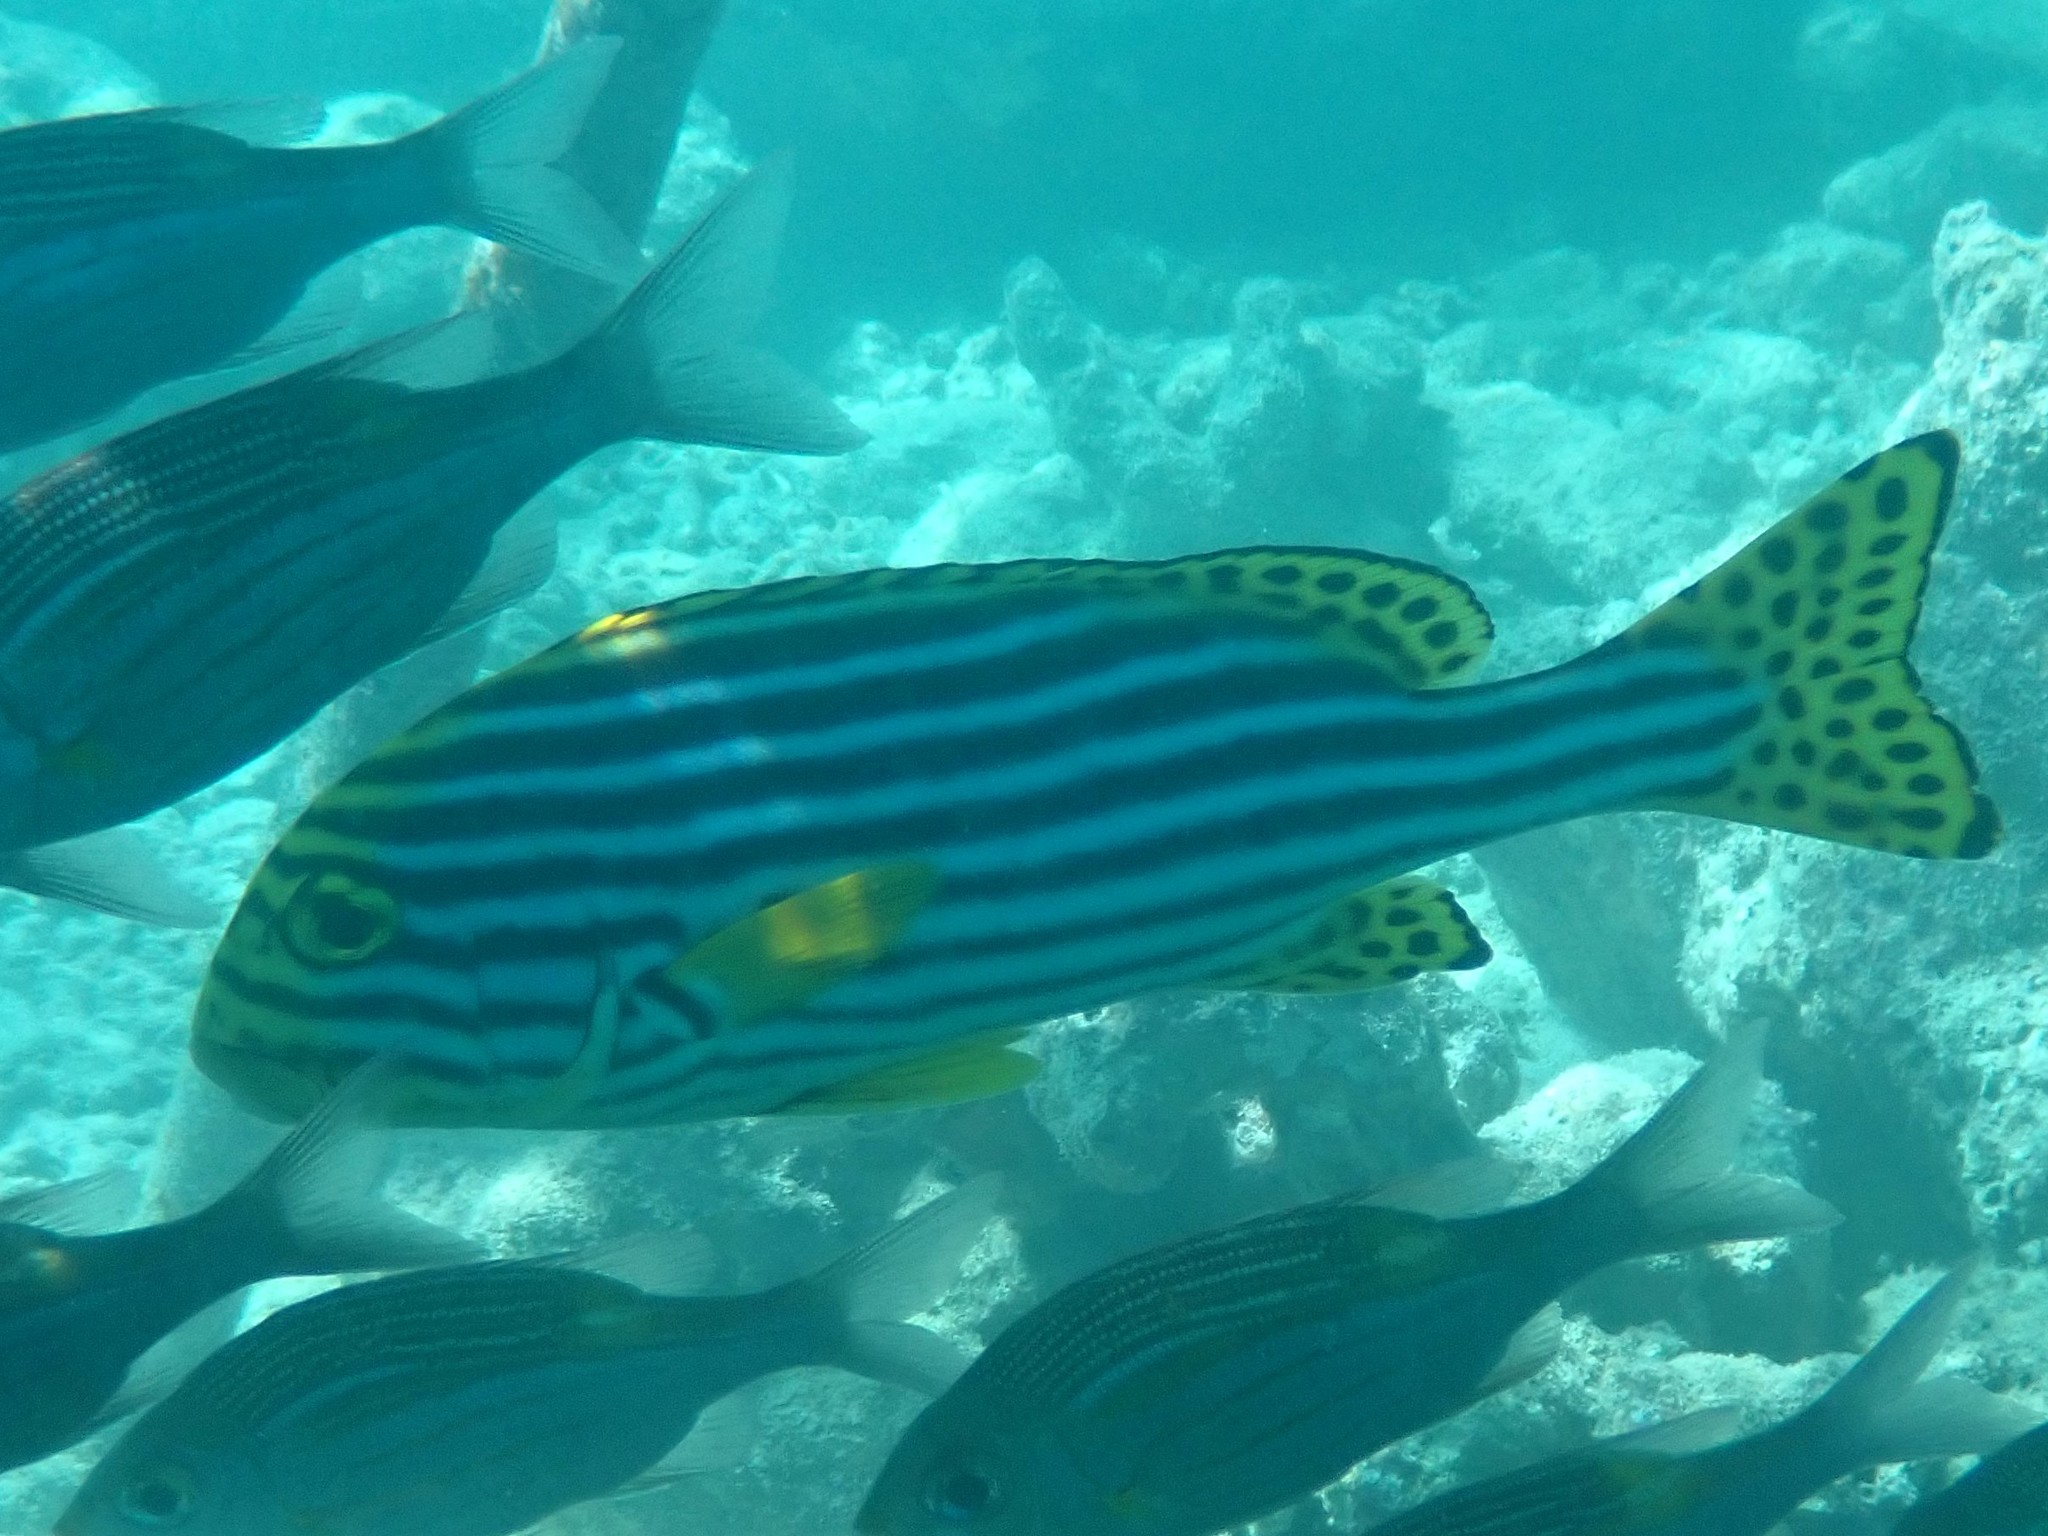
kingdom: Animalia
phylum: Chordata
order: Perciformes
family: Haemulidae
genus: Plectorhinchus
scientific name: Plectorhinchus vittatus
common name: Oriental sweetlips
